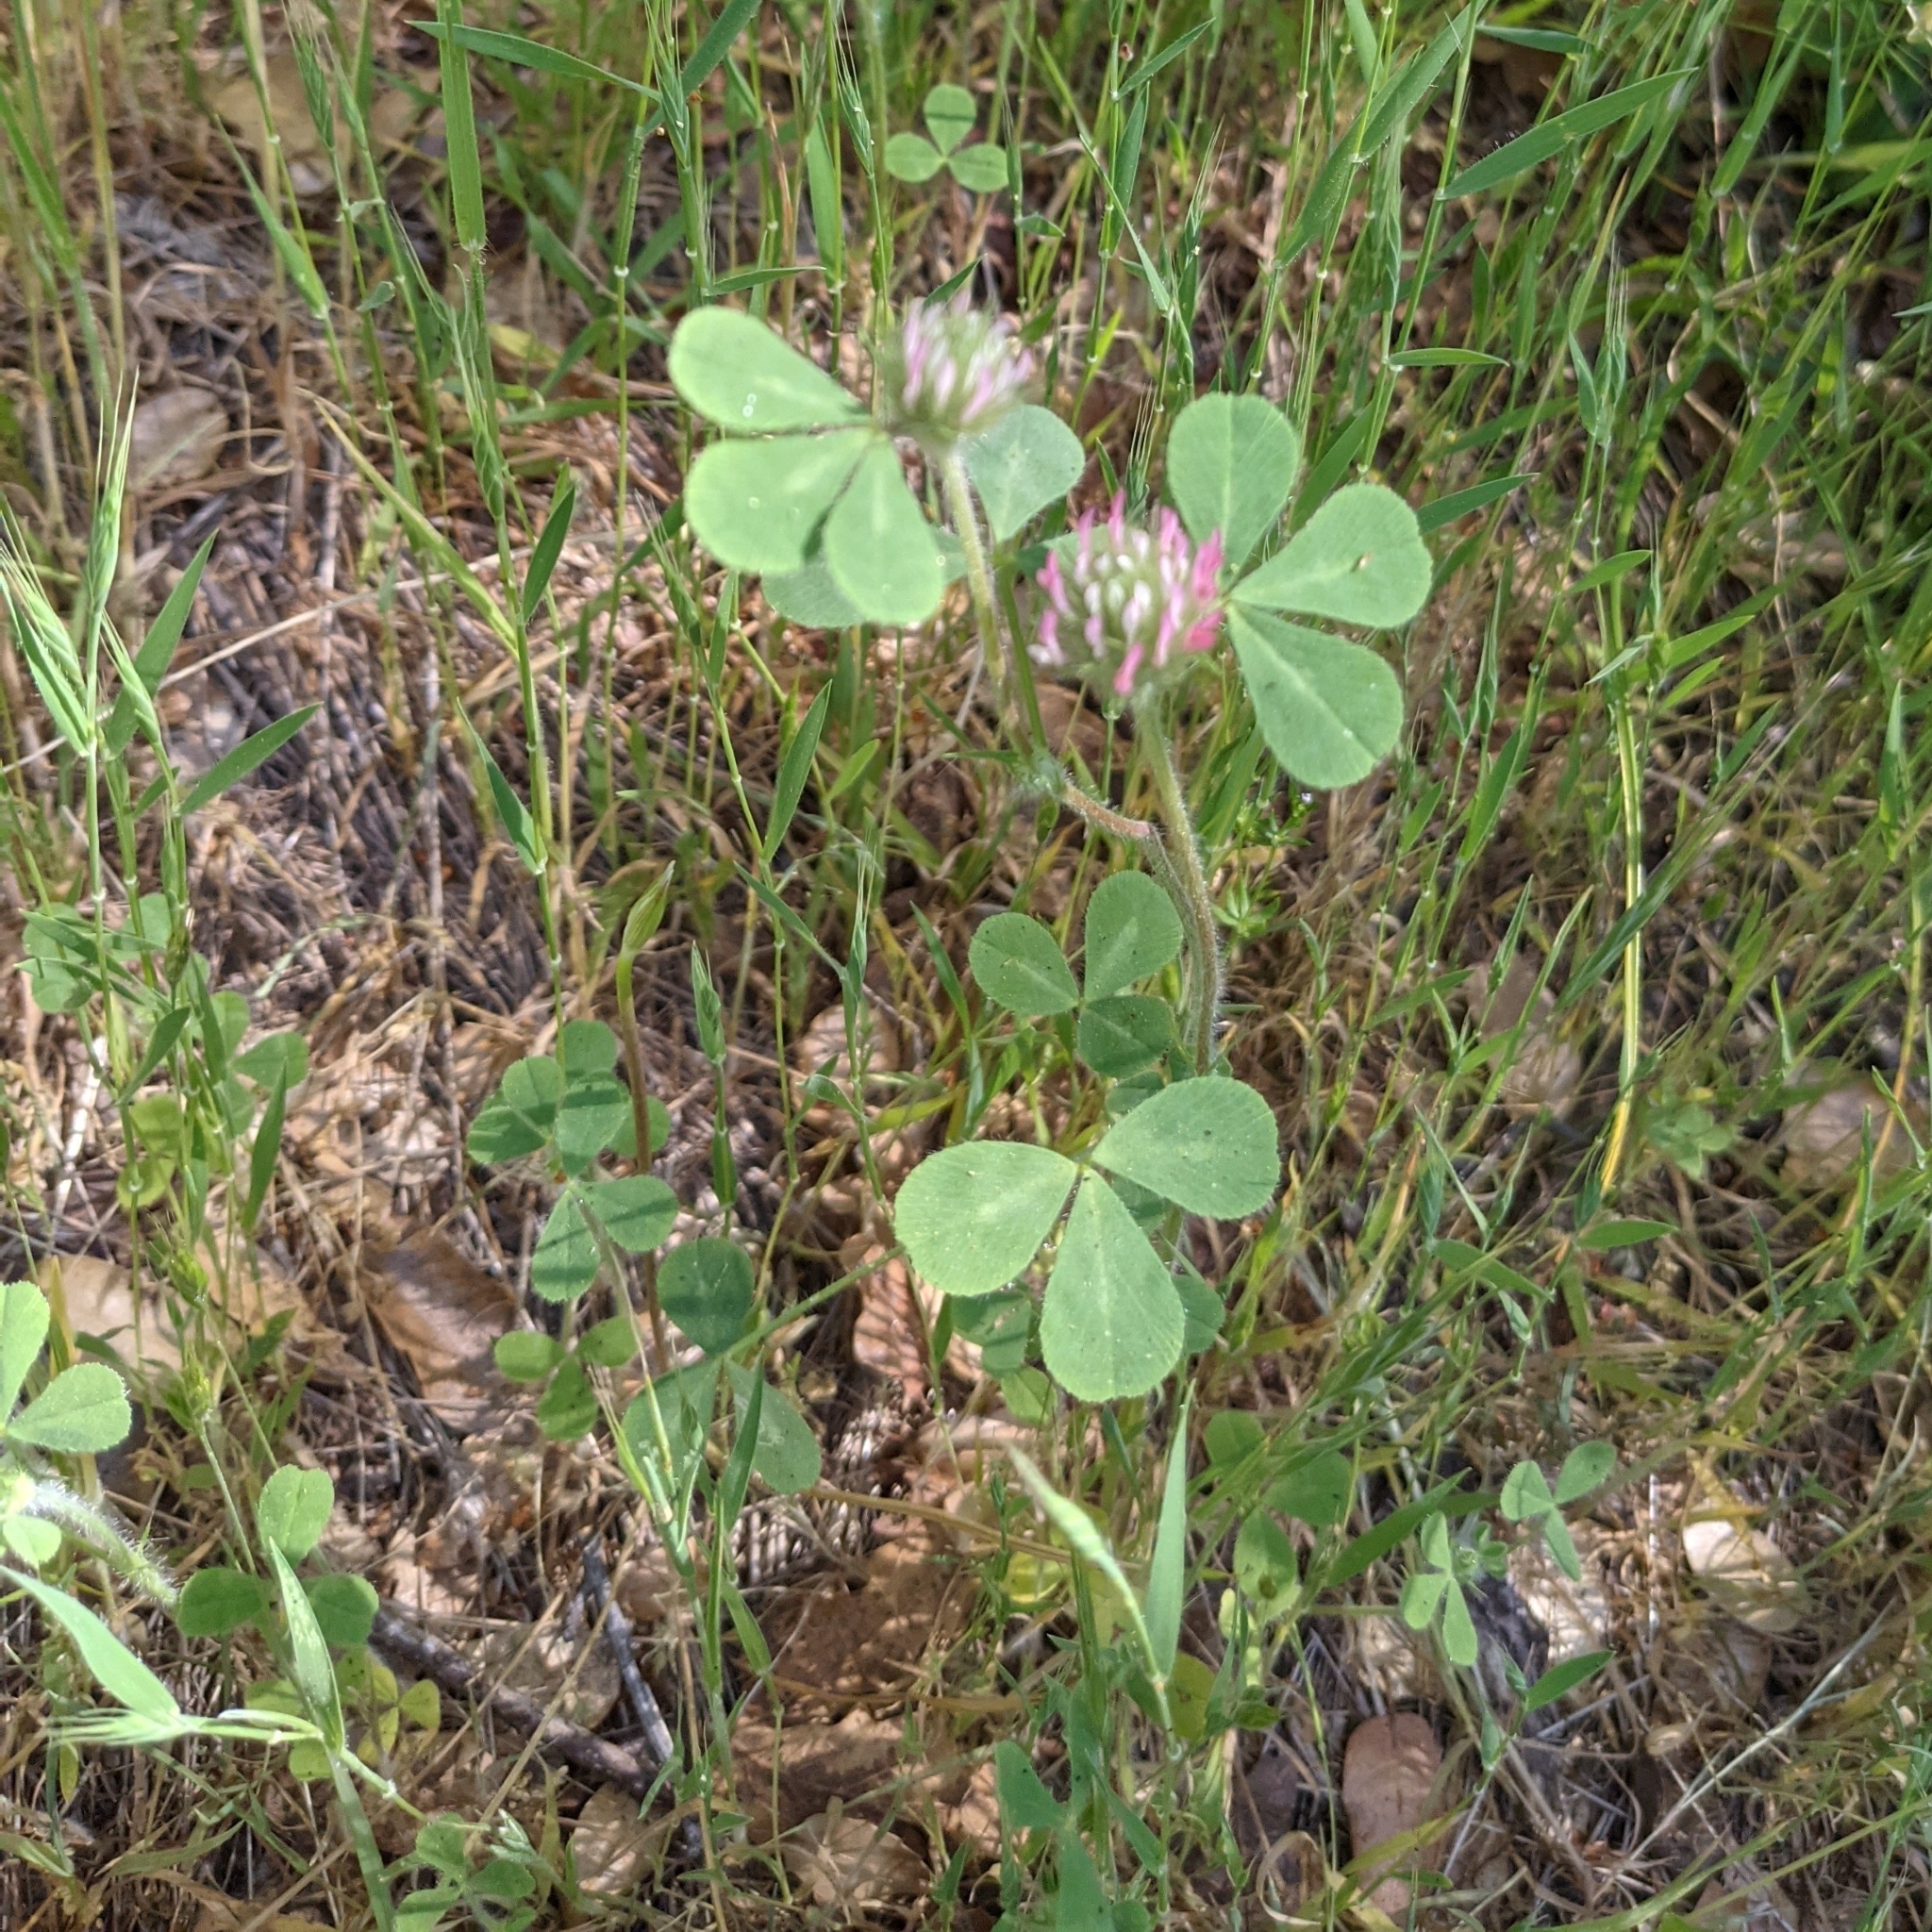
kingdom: Plantae
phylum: Tracheophyta
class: Magnoliopsida
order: Fabales
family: Fabaceae
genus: Trifolium
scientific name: Trifolium hirtum
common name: Rose clover
